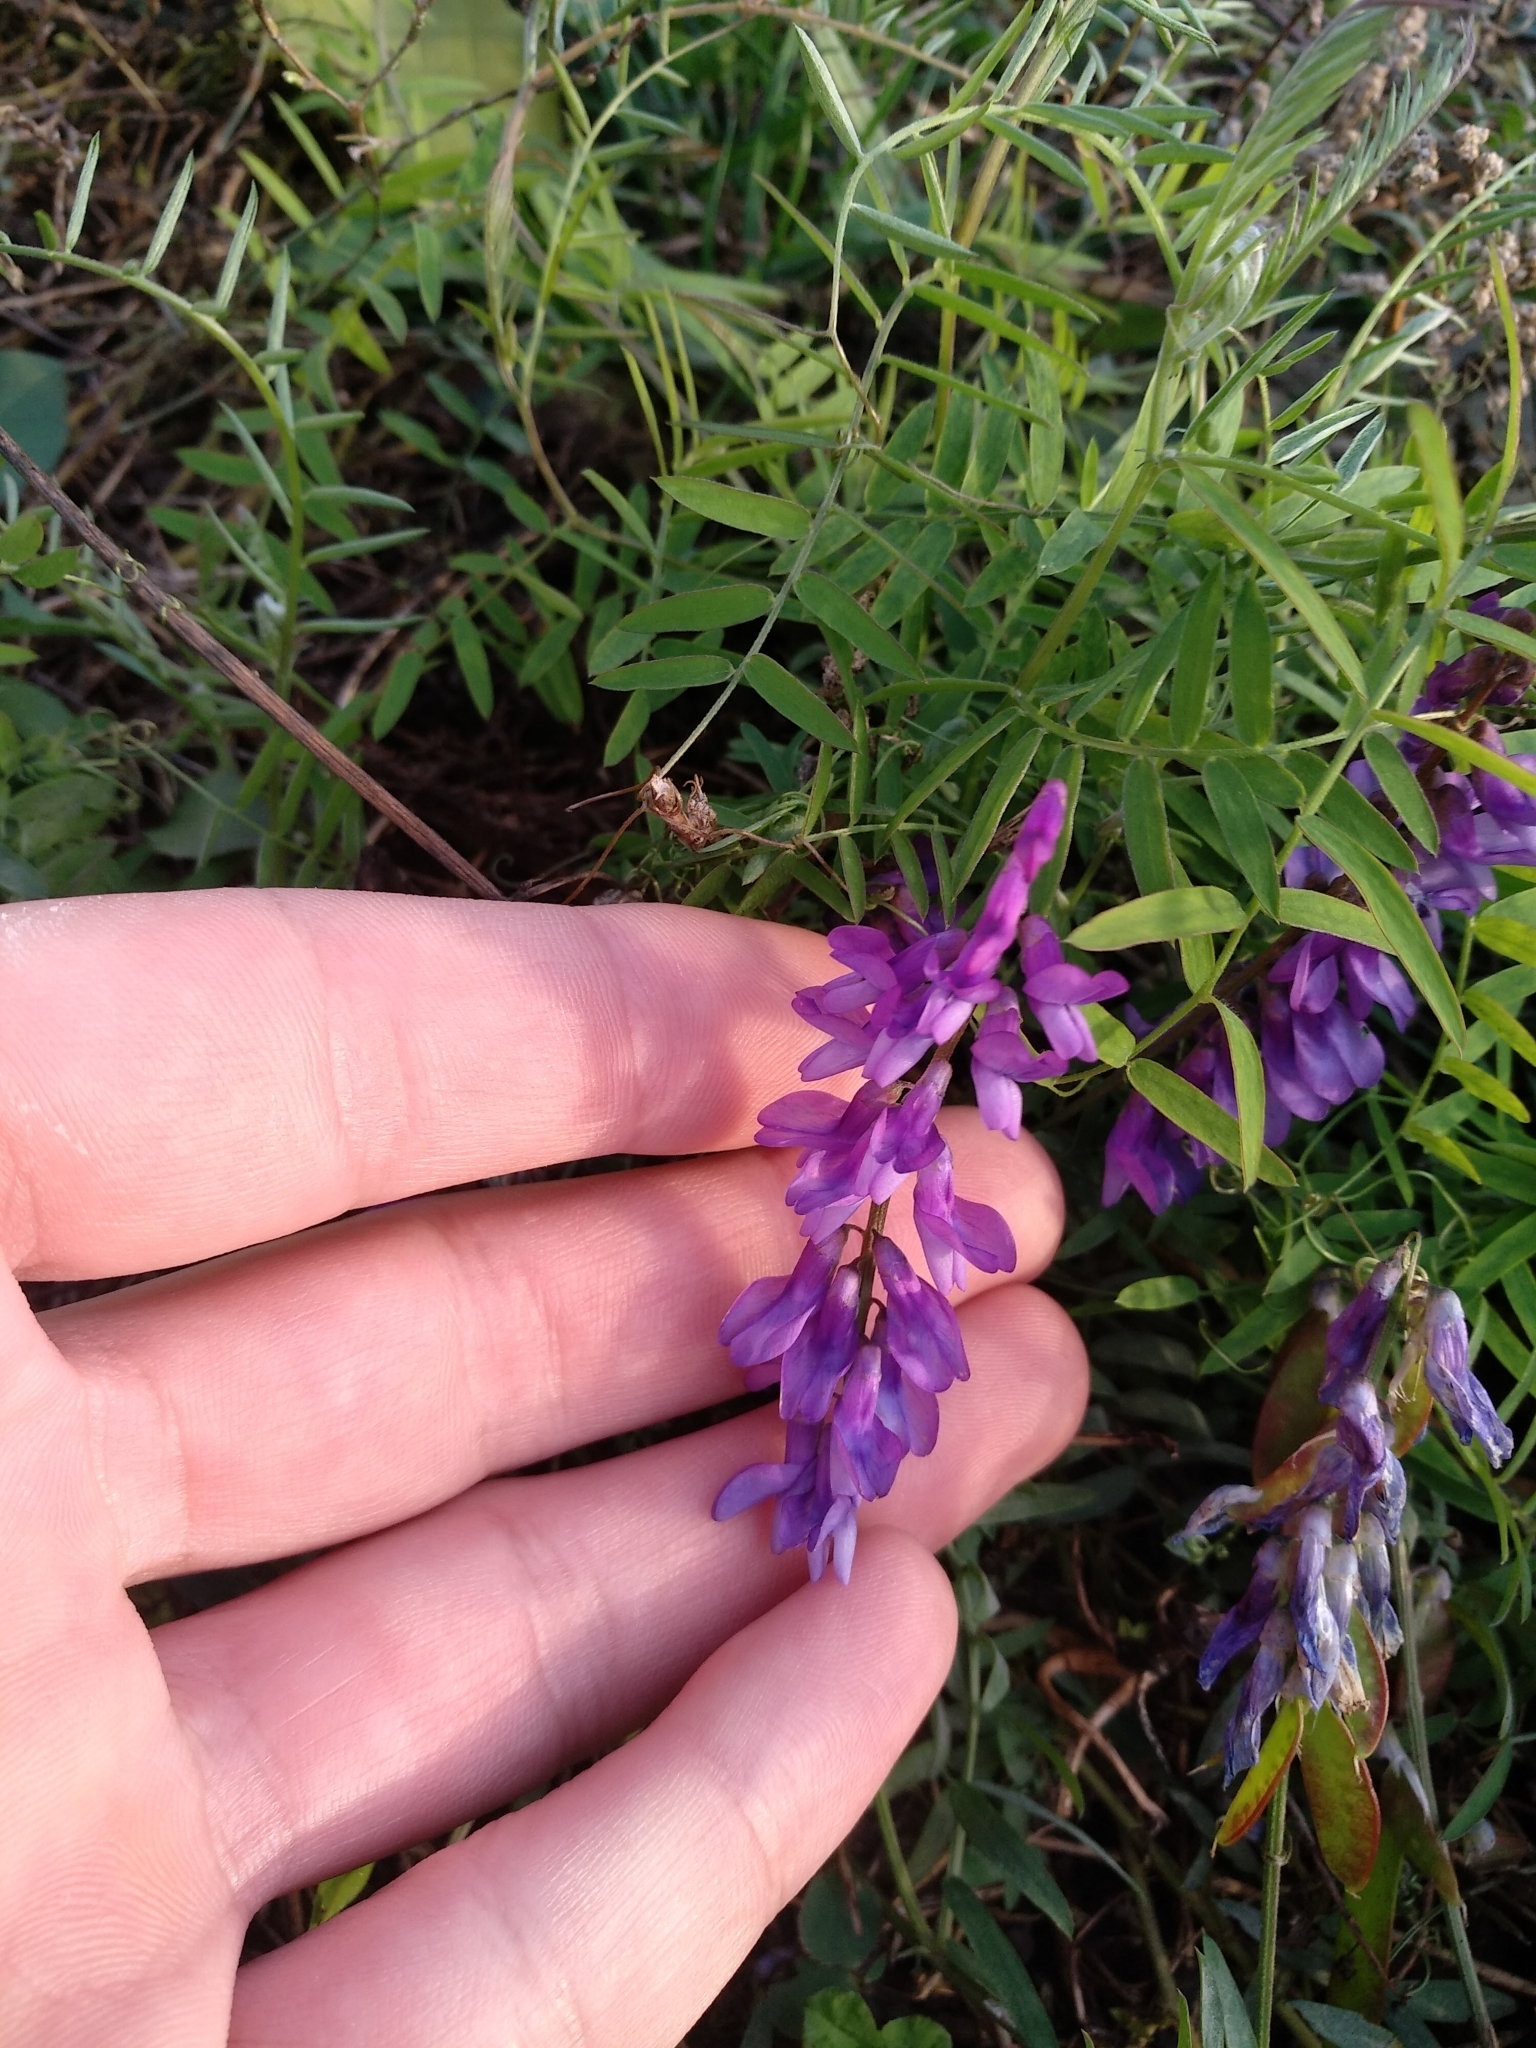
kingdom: Plantae
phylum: Tracheophyta
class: Magnoliopsida
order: Fabales
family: Fabaceae
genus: Vicia
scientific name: Vicia cracca
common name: Bird vetch
